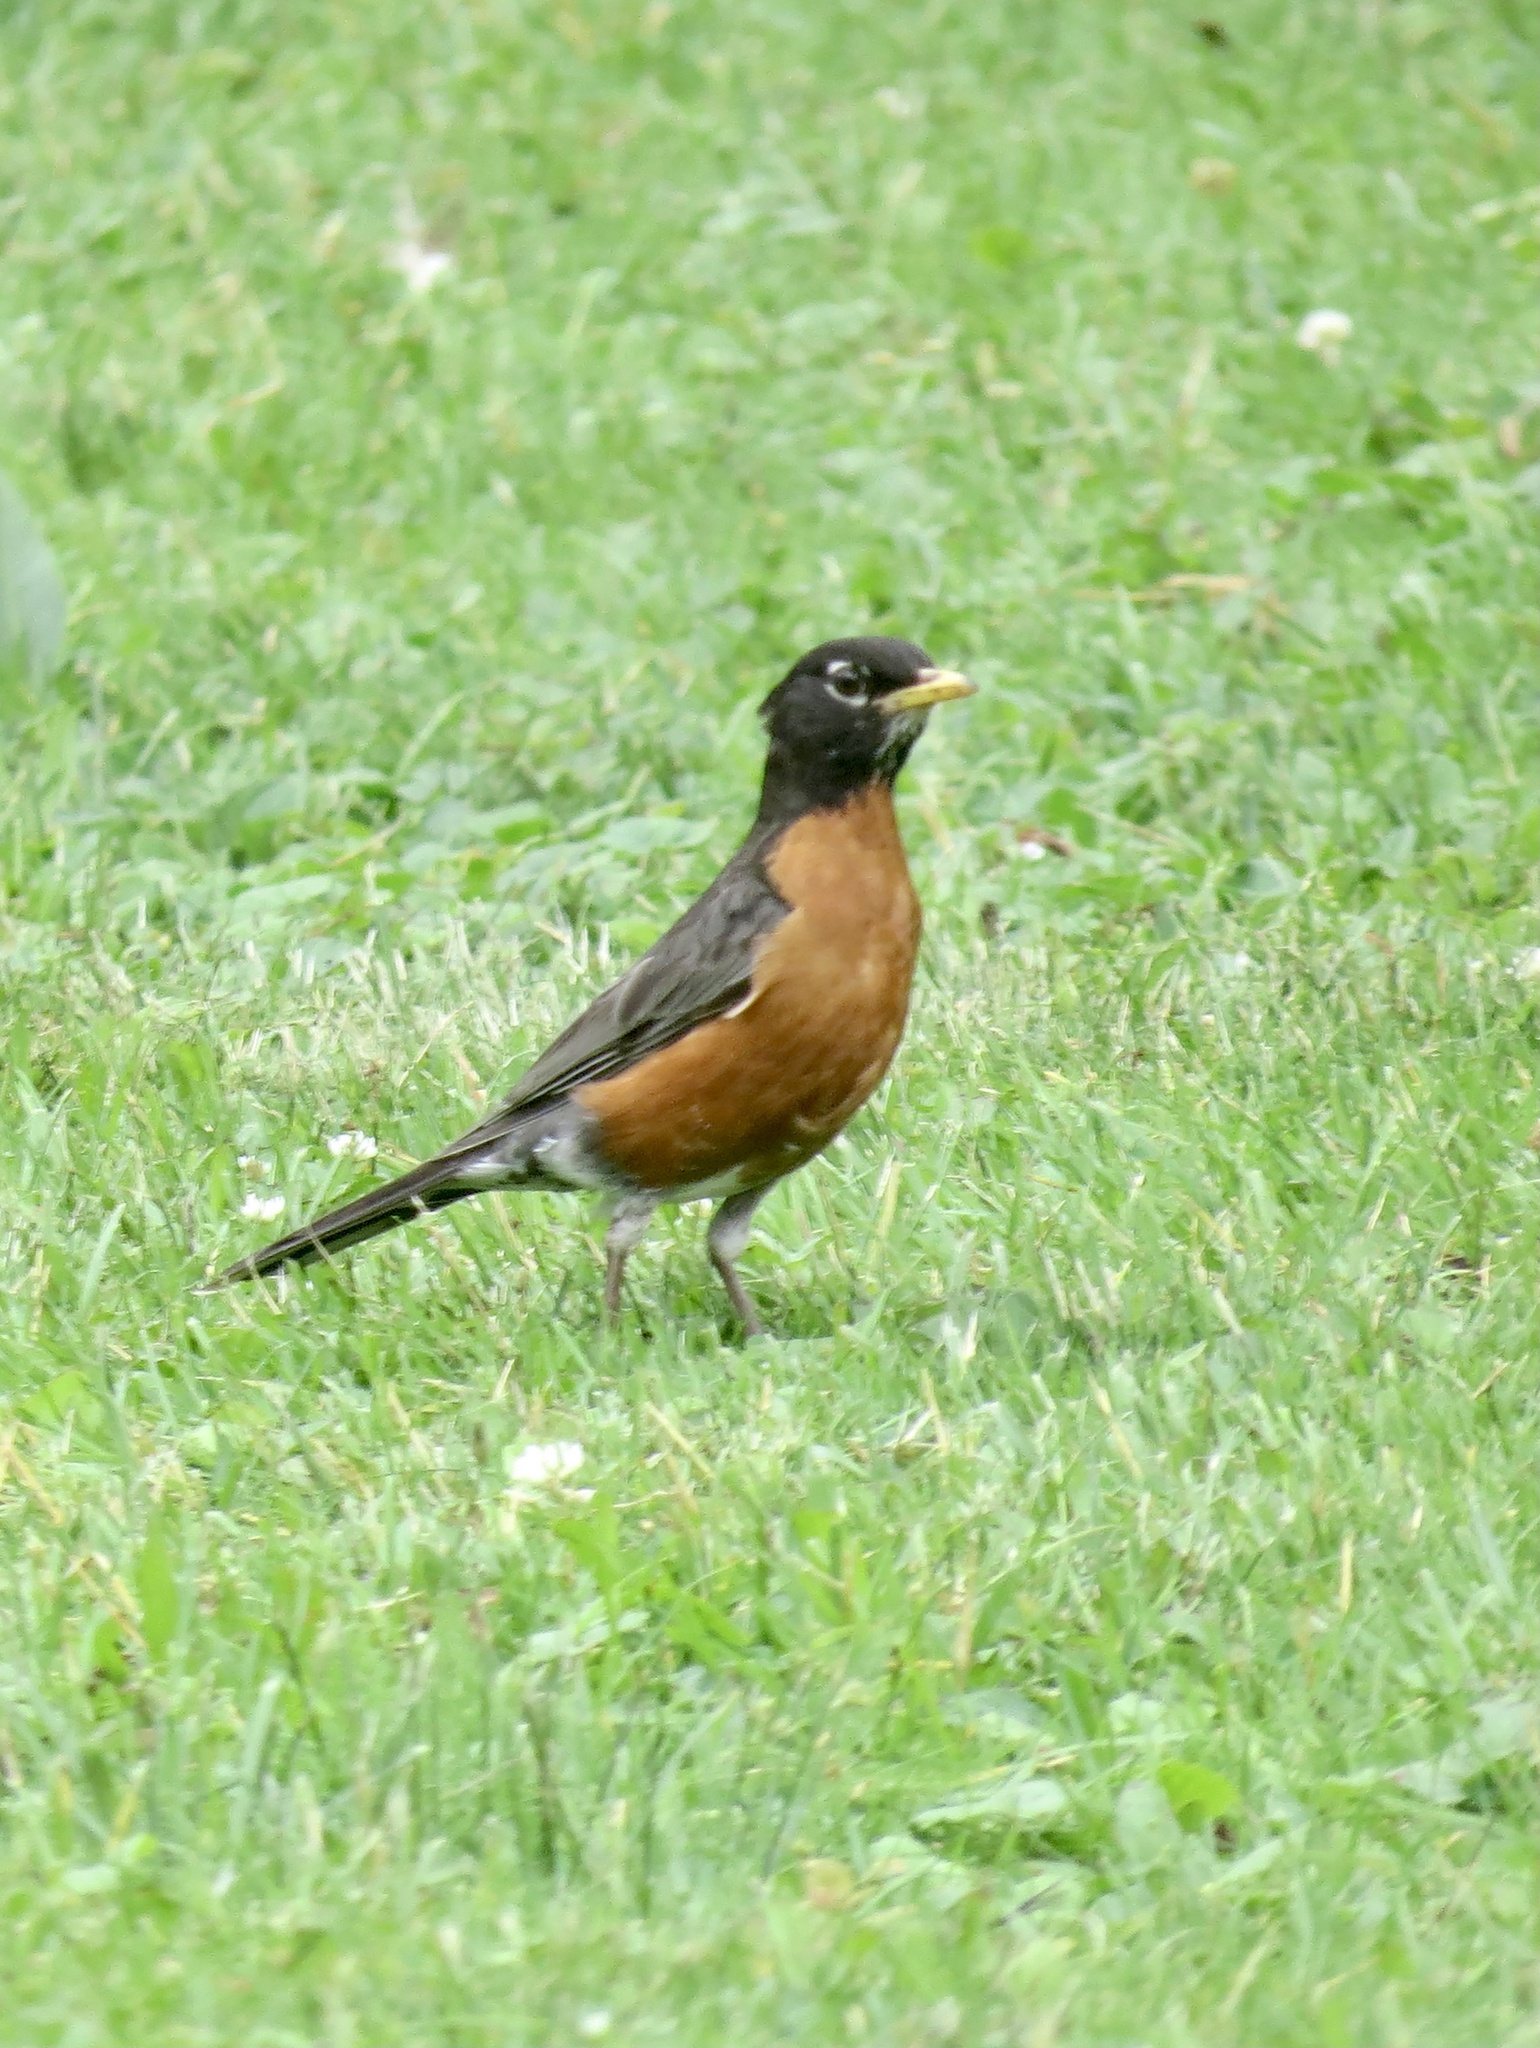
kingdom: Animalia
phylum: Chordata
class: Aves
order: Passeriformes
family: Turdidae
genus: Turdus
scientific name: Turdus migratorius
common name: American robin
